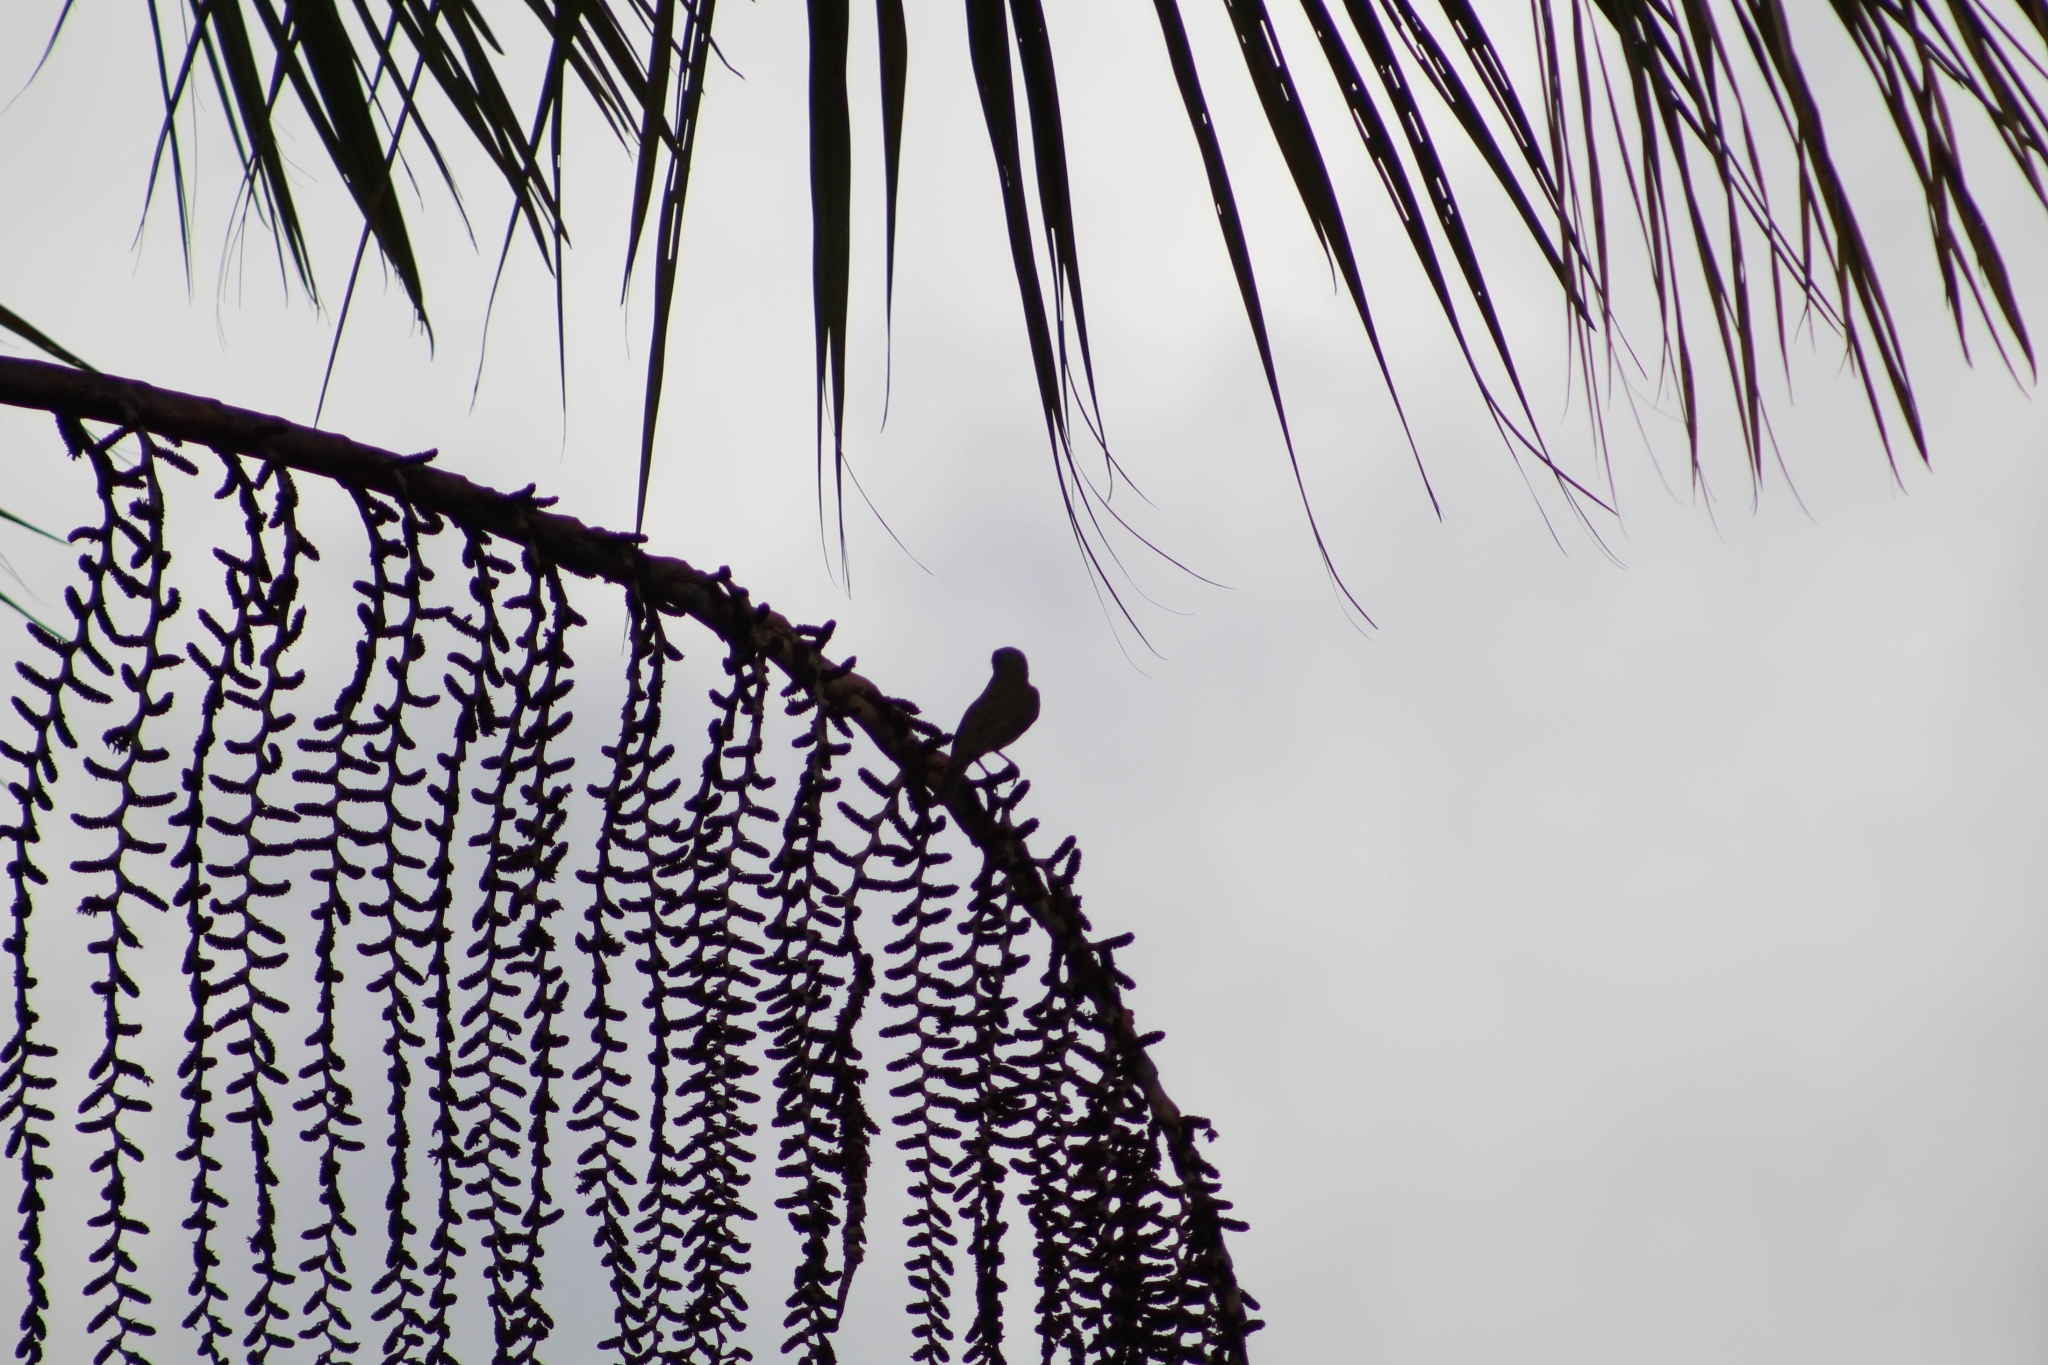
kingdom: Animalia
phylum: Chordata
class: Aves
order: Passeriformes
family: Tyrannidae
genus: Tyrannopsis
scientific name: Tyrannopsis sulphurea
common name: Sulphury flycatcher
